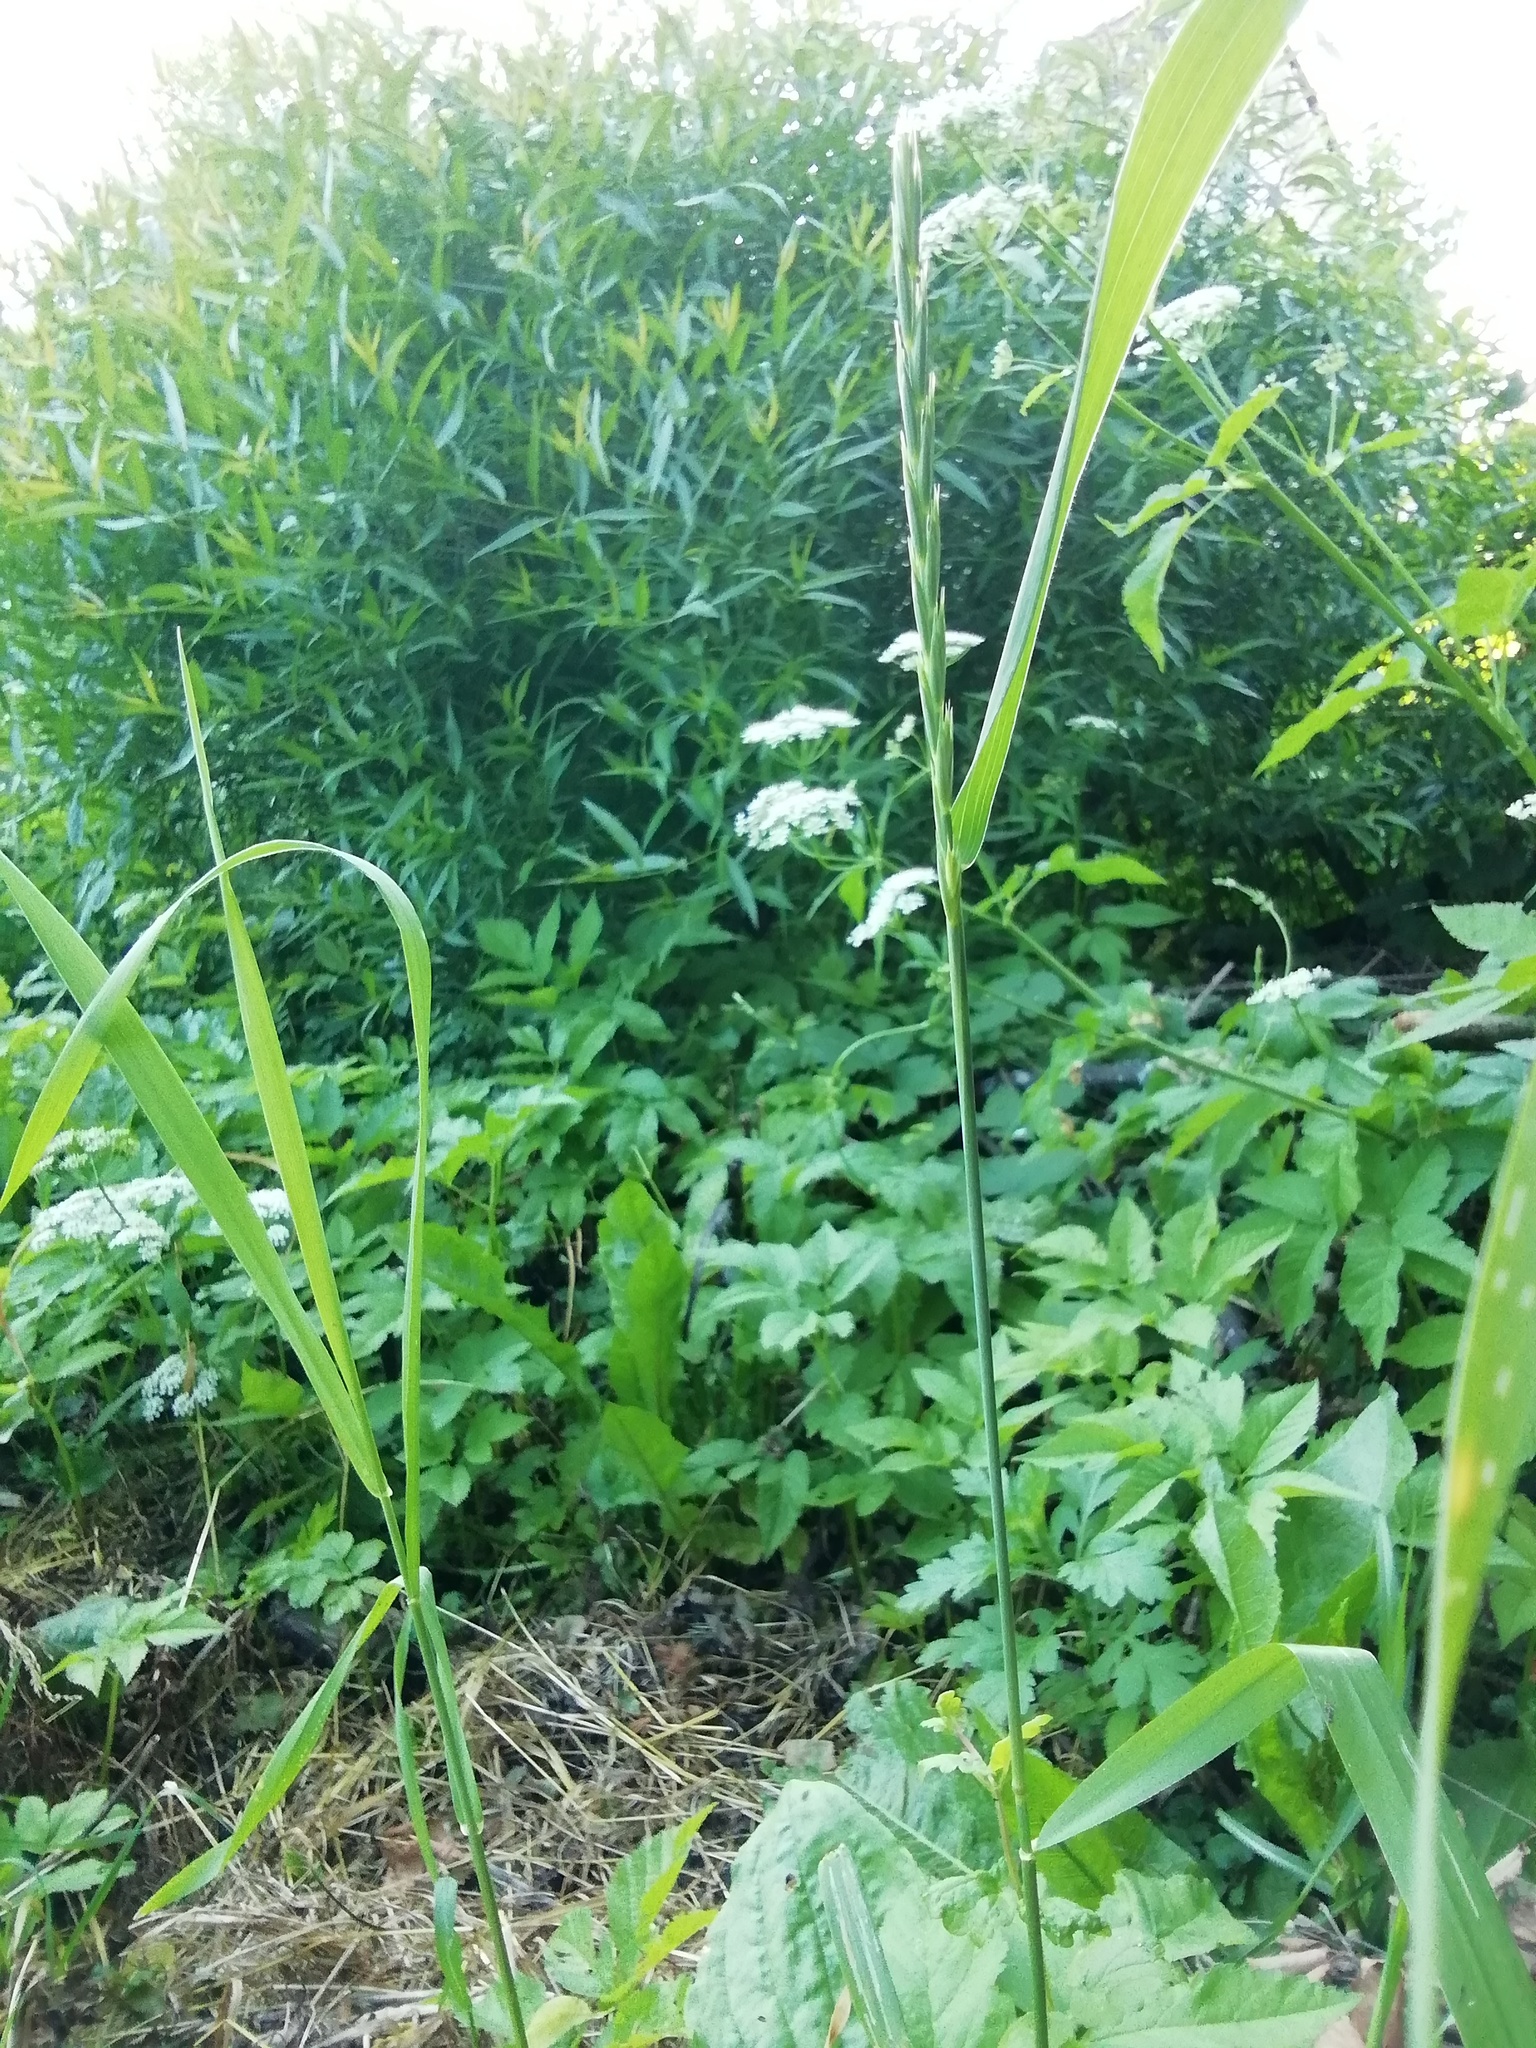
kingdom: Plantae
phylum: Tracheophyta
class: Liliopsida
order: Poales
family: Poaceae
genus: Elymus
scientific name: Elymus repens
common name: Quackgrass
